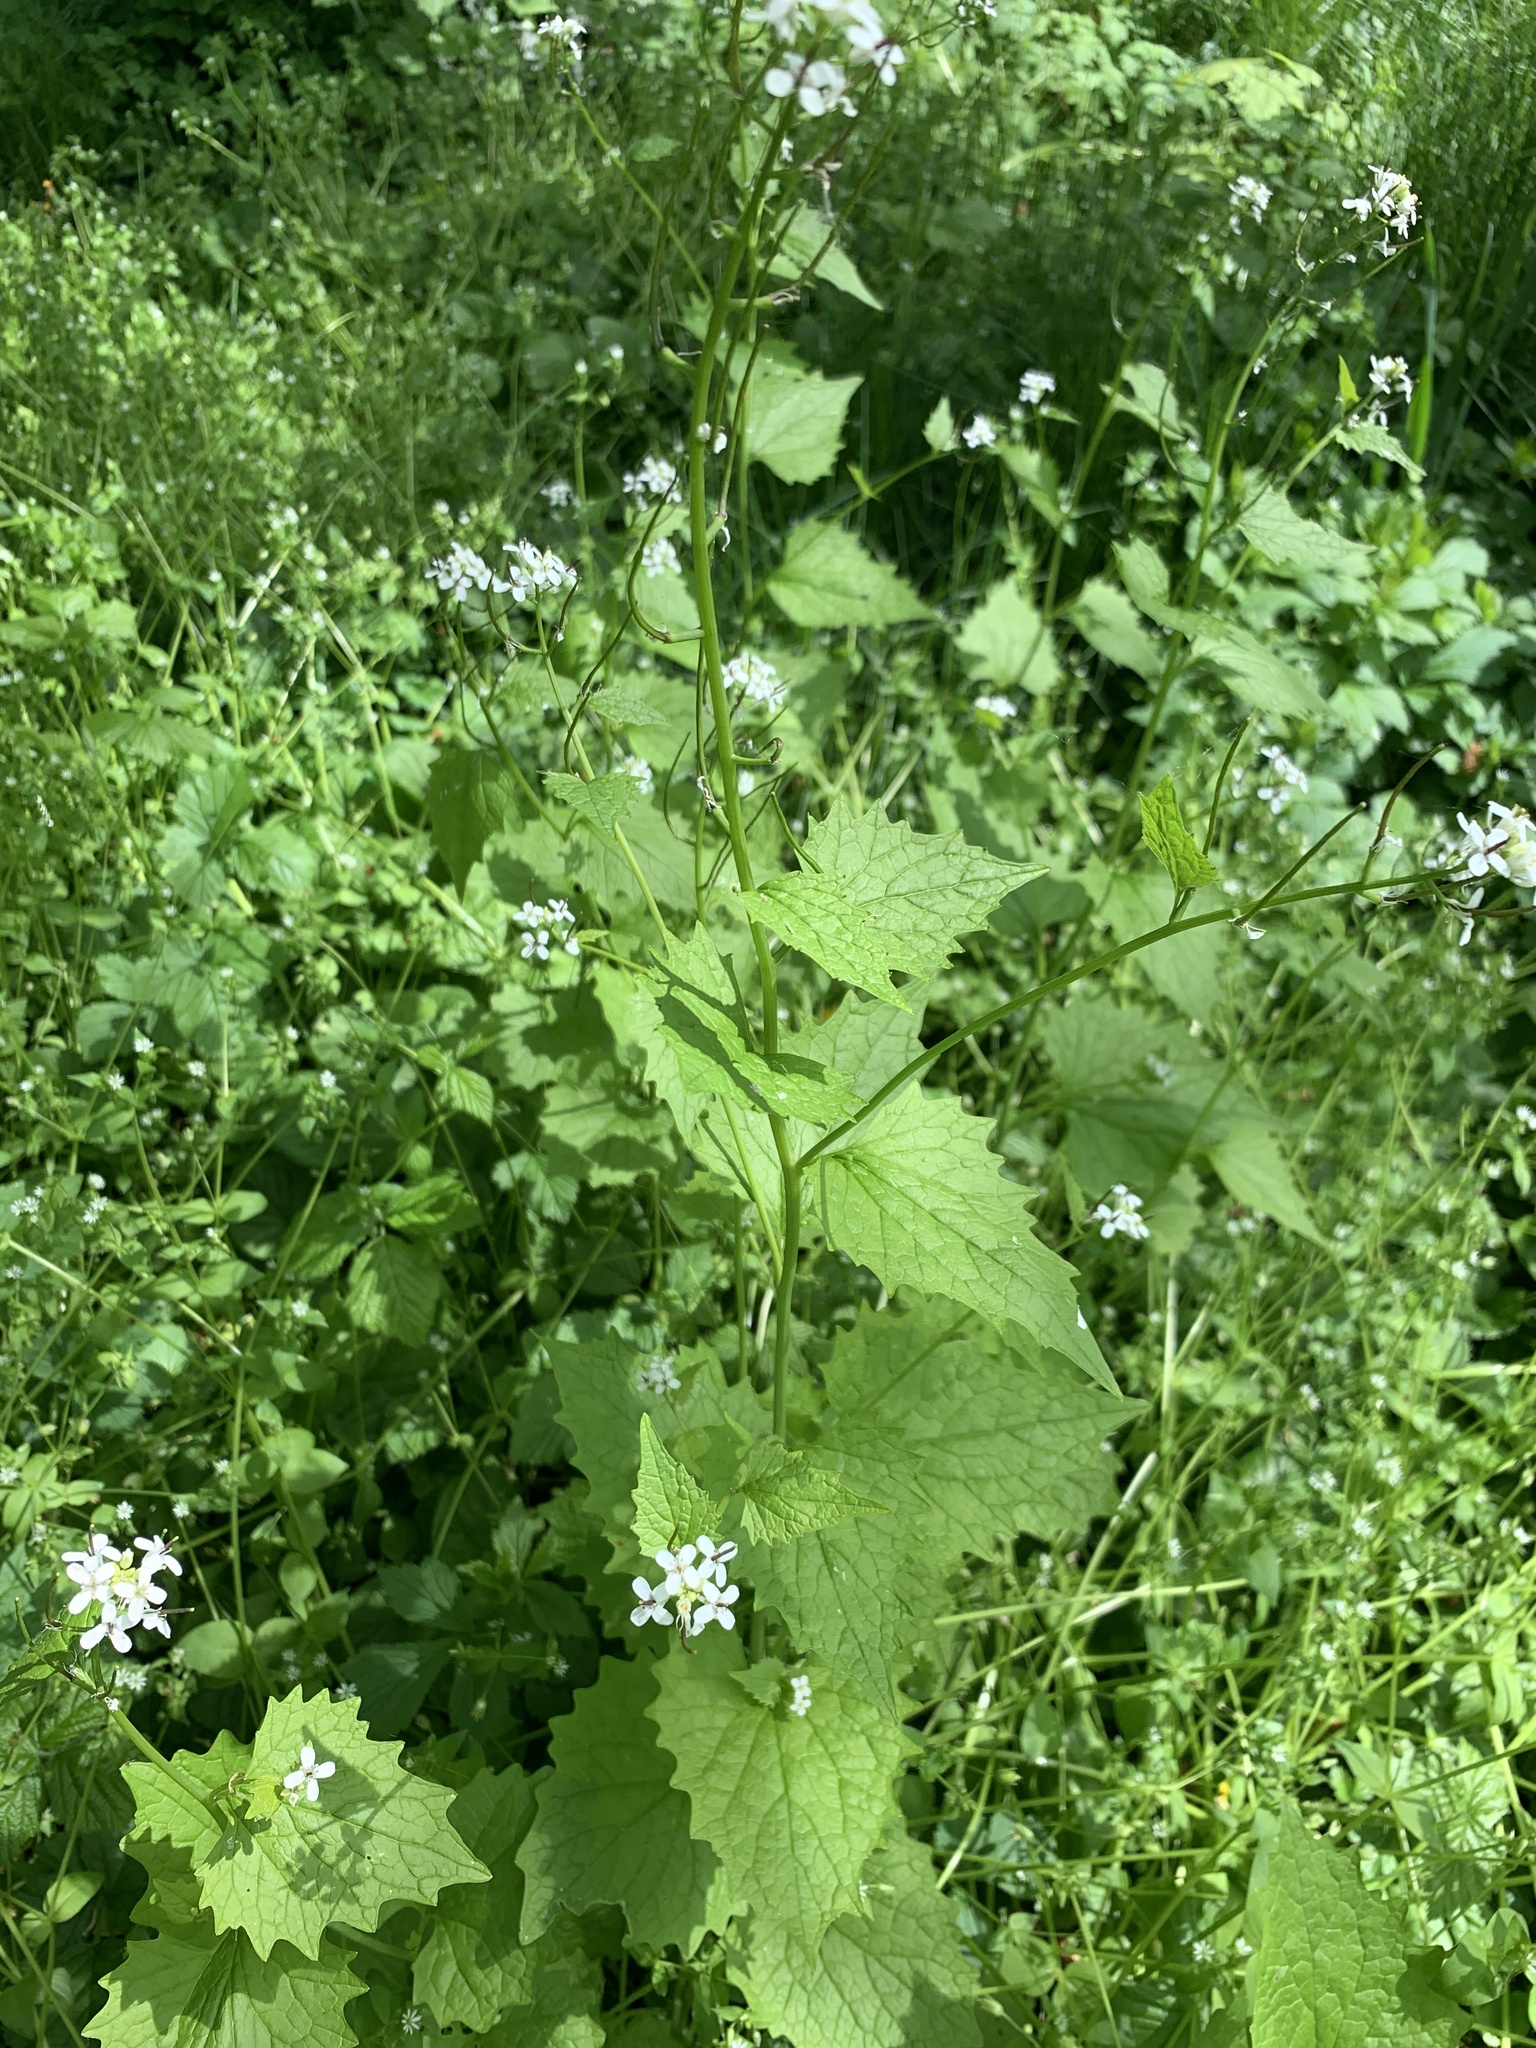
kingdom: Plantae
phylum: Tracheophyta
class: Magnoliopsida
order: Brassicales
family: Brassicaceae
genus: Alliaria
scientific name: Alliaria petiolata
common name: Garlic mustard
